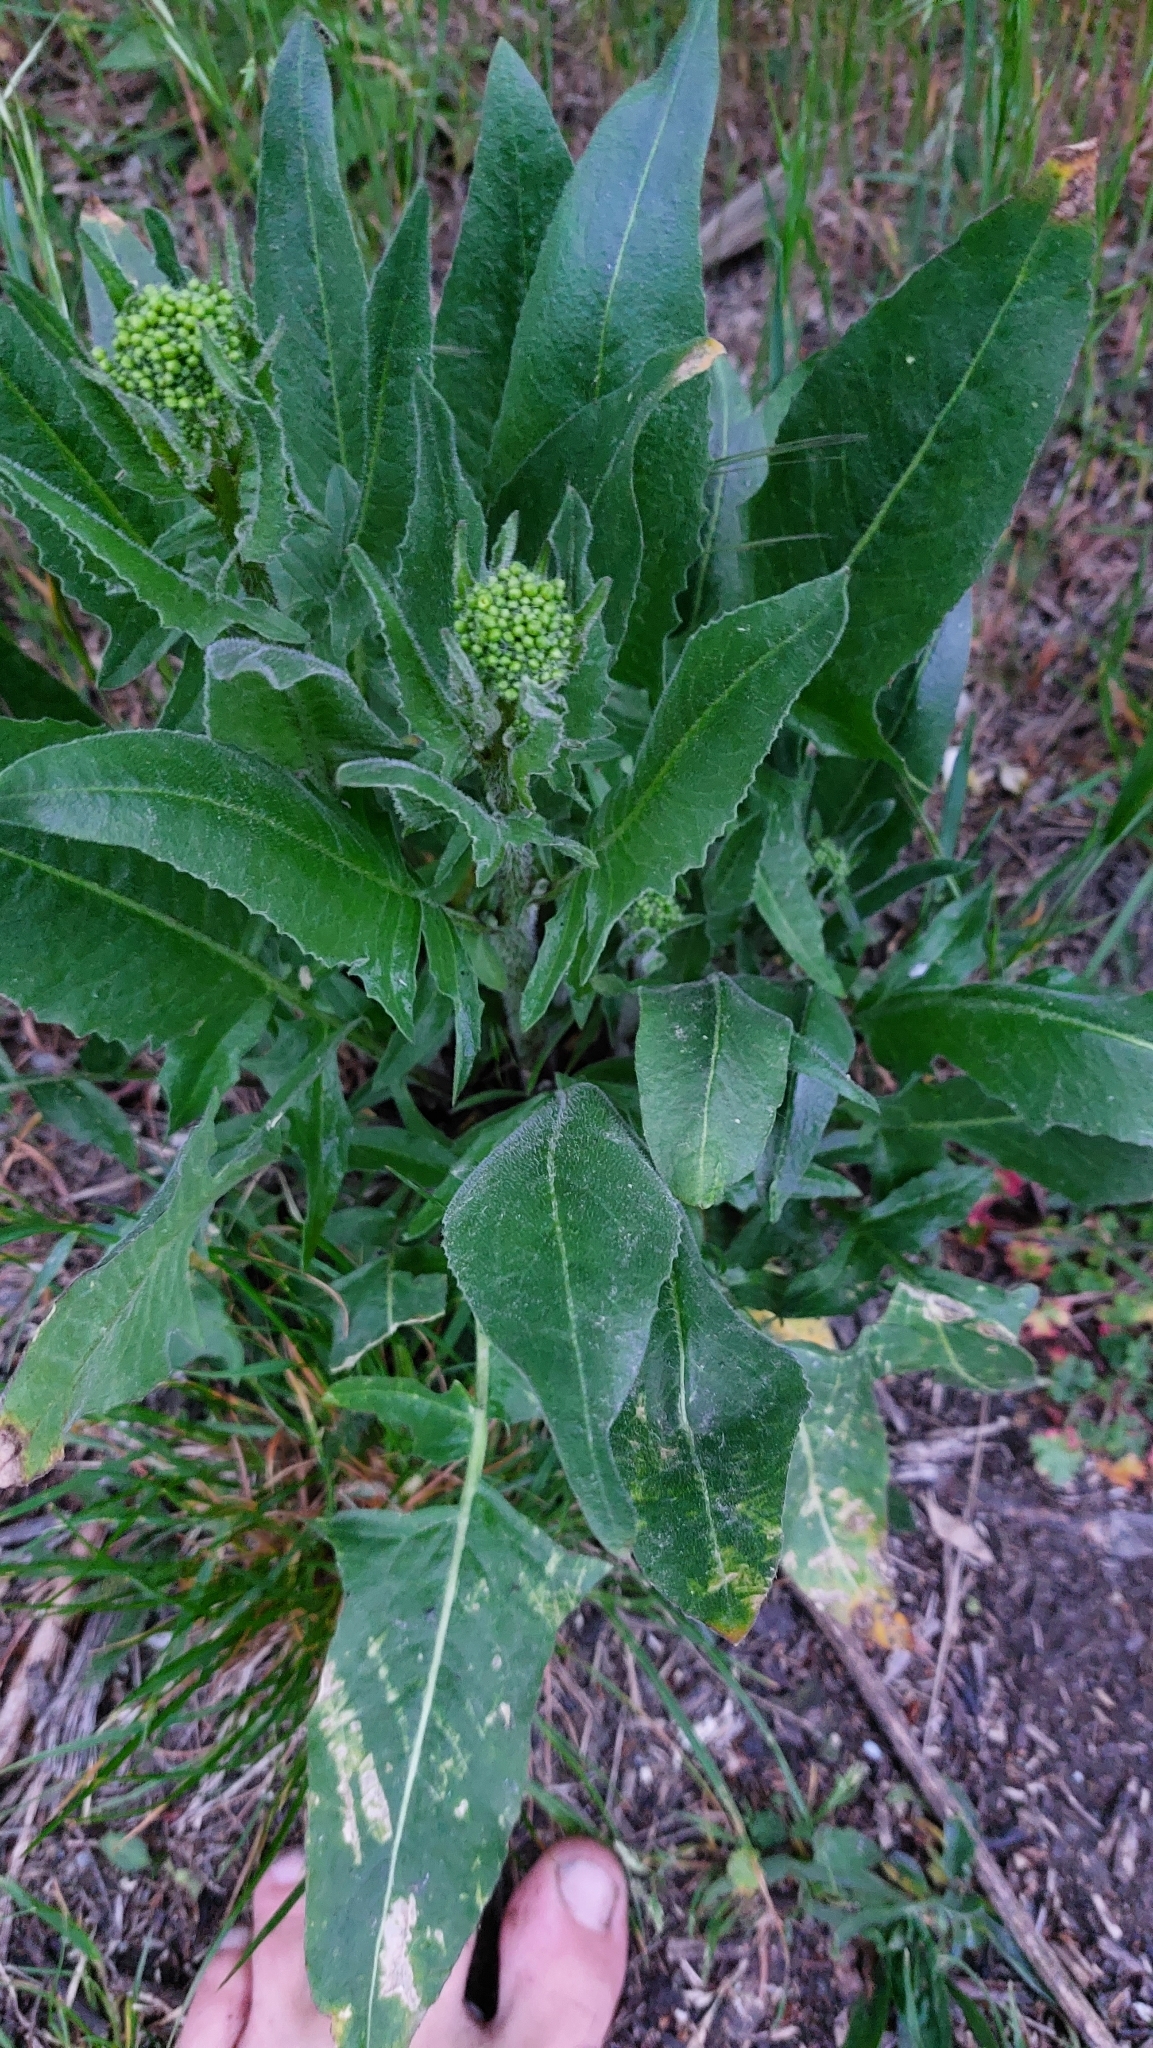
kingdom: Plantae
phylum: Tracheophyta
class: Magnoliopsida
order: Brassicales
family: Brassicaceae
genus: Bunias
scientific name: Bunias orientalis
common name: Warty-cabbage
